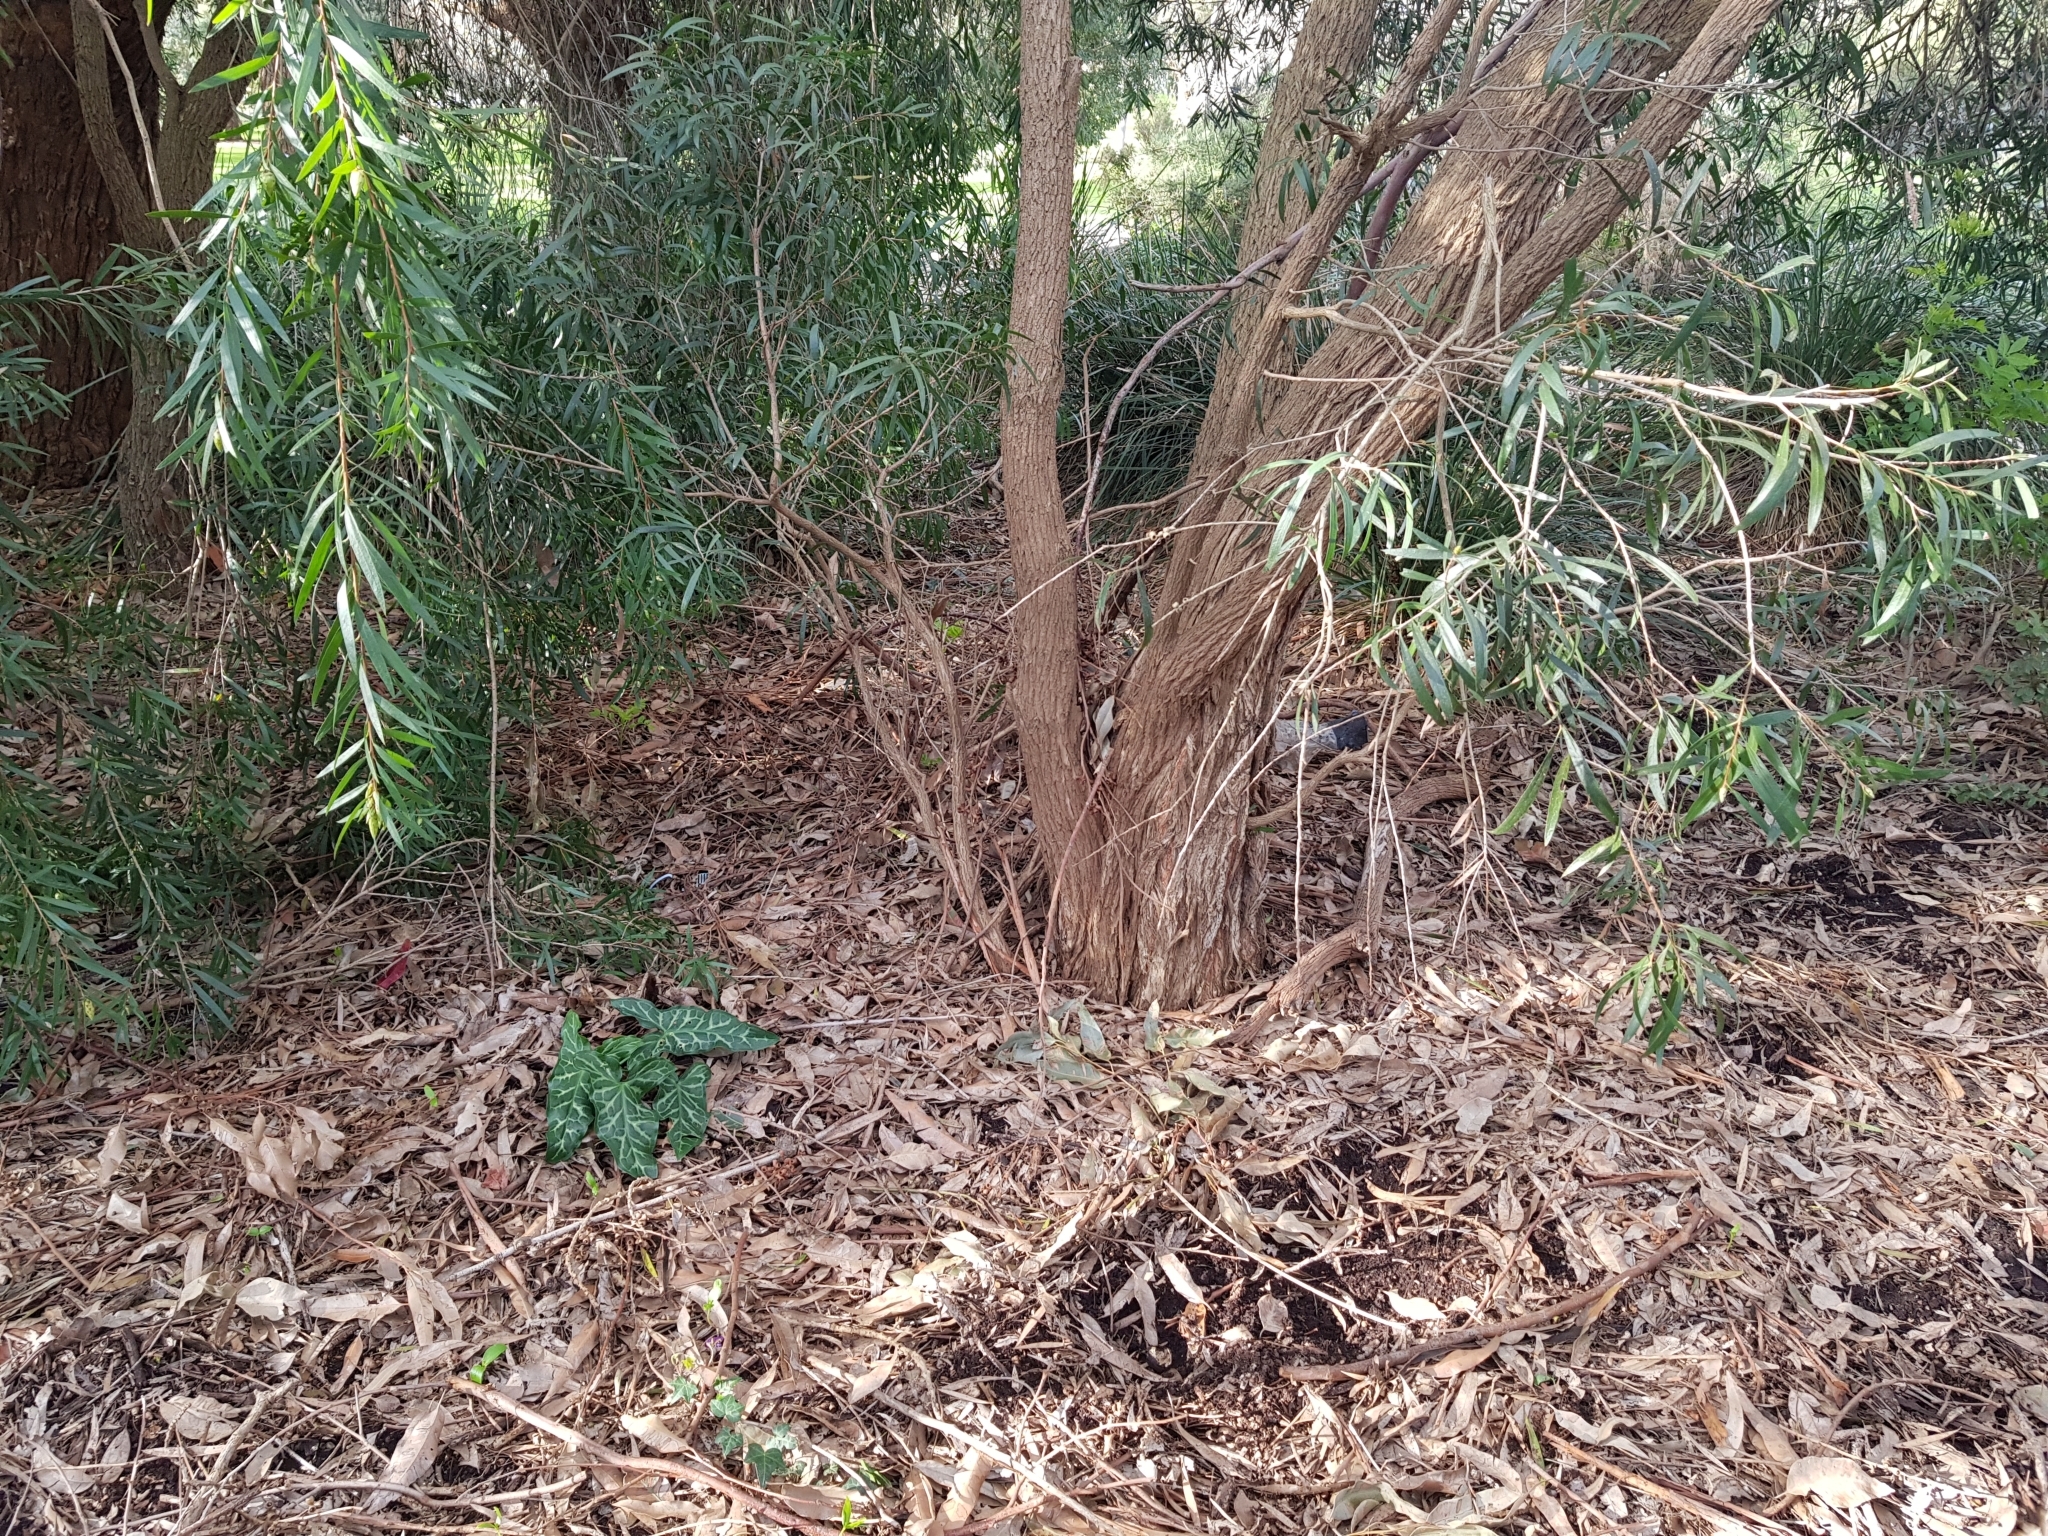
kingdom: Plantae
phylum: Tracheophyta
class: Liliopsida
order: Alismatales
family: Araceae
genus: Arum
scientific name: Arum italicum
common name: Italian lords-and-ladies
